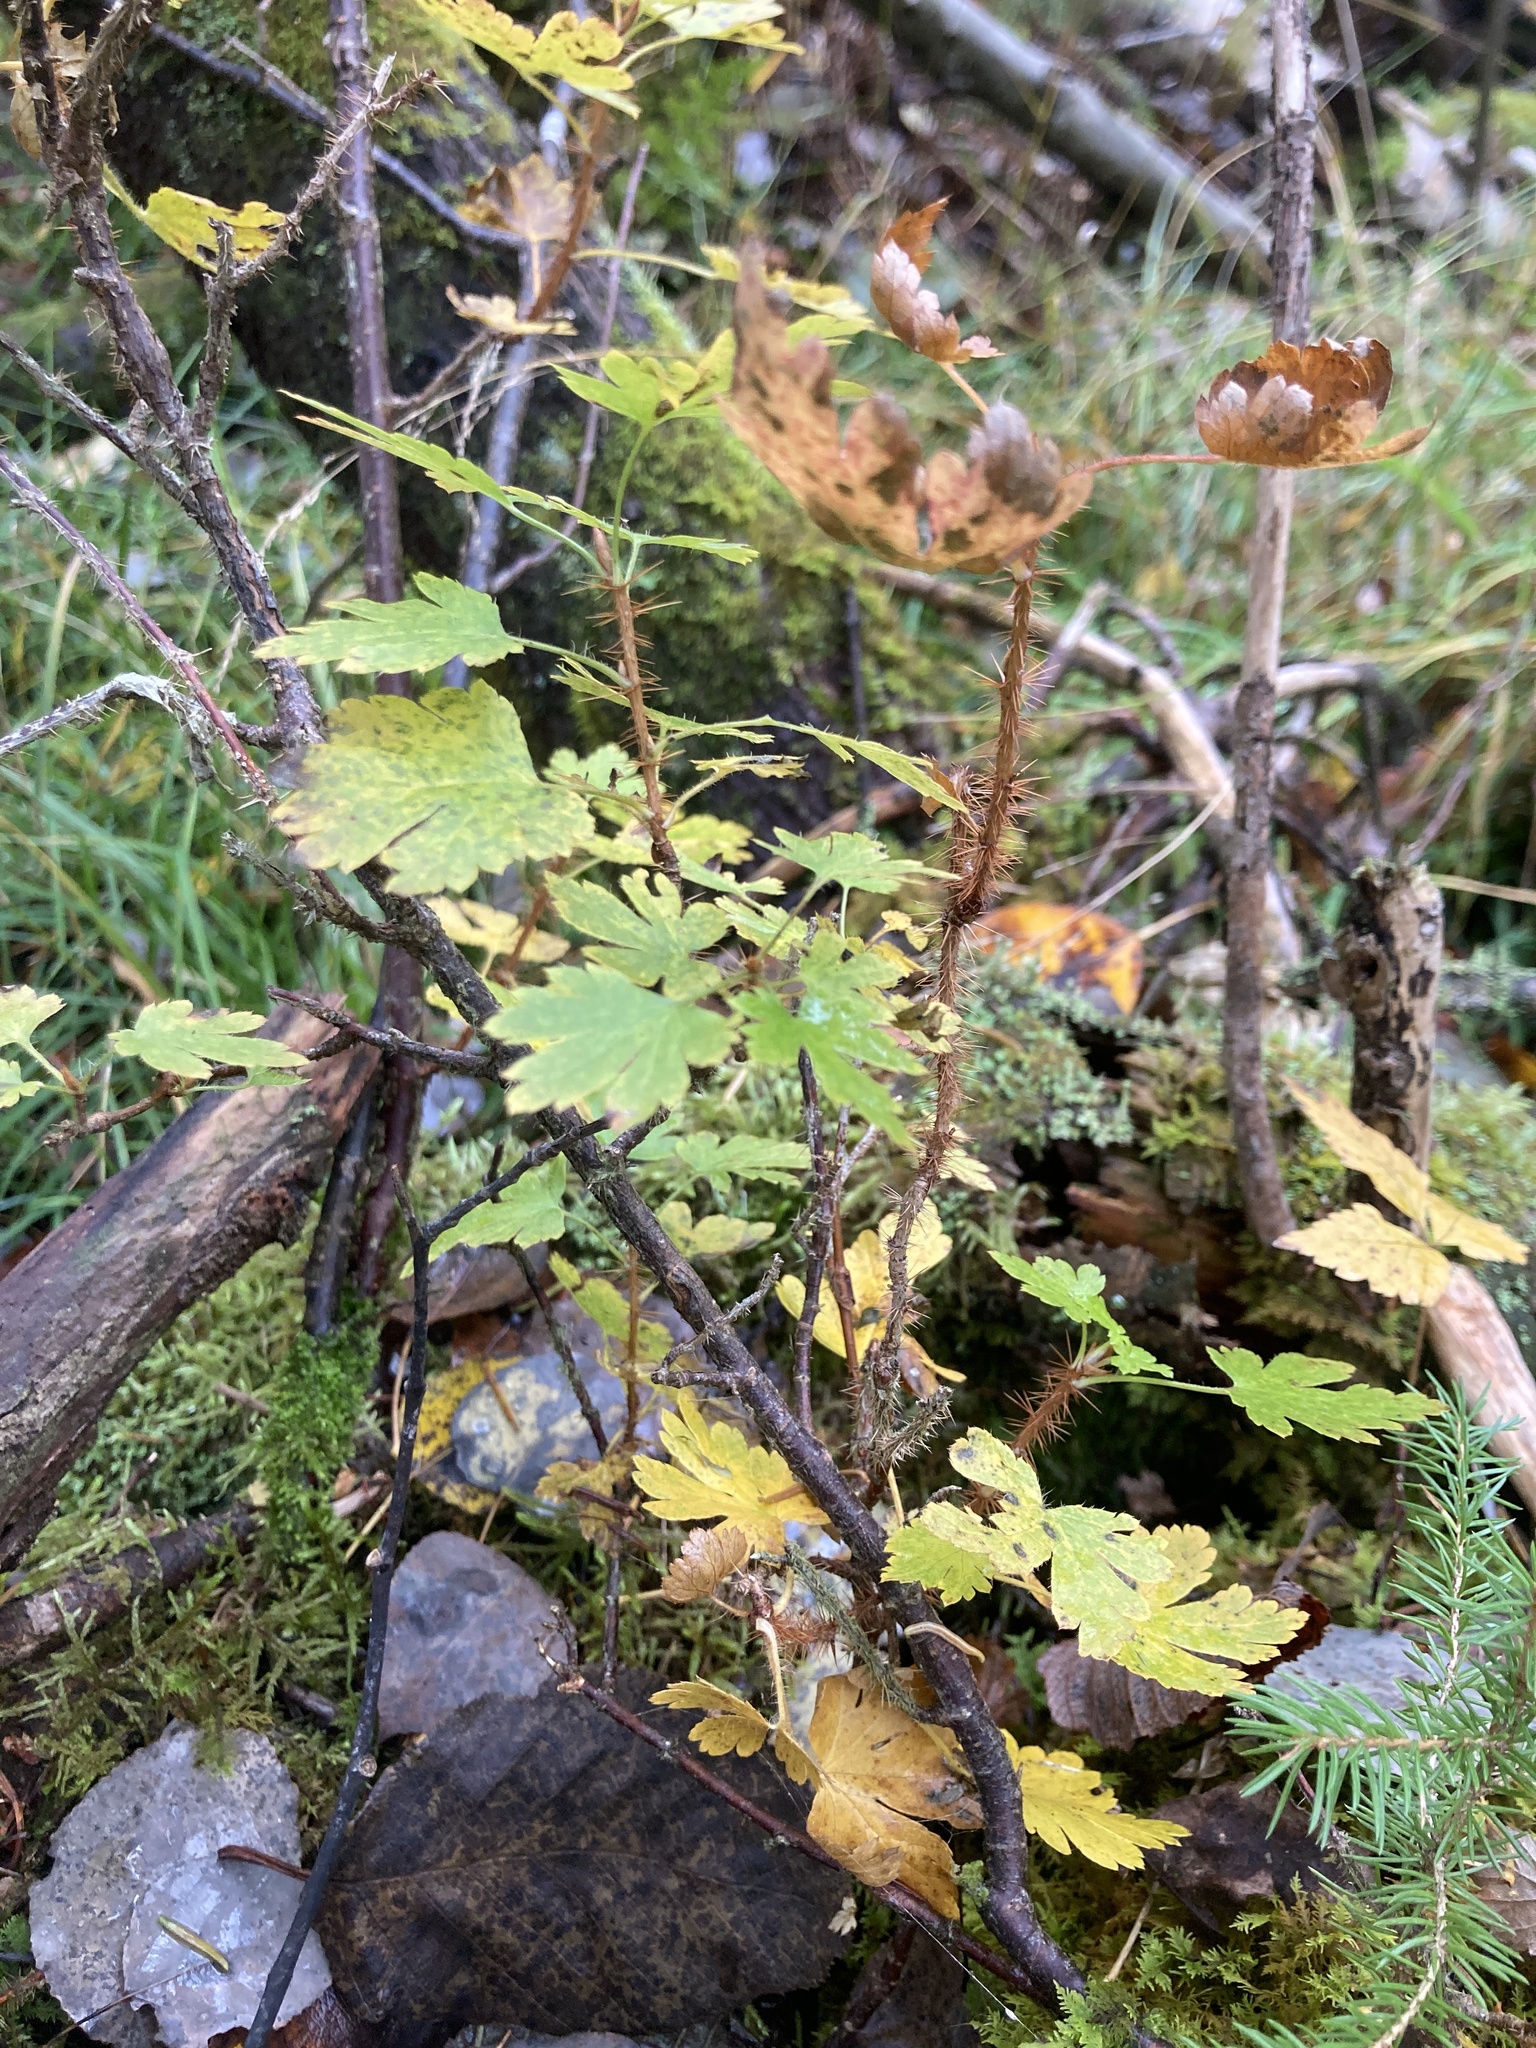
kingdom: Plantae
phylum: Tracheophyta
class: Magnoliopsida
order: Saxifragales
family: Grossulariaceae
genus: Ribes
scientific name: Ribes lacustre
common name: Black gooseberry
